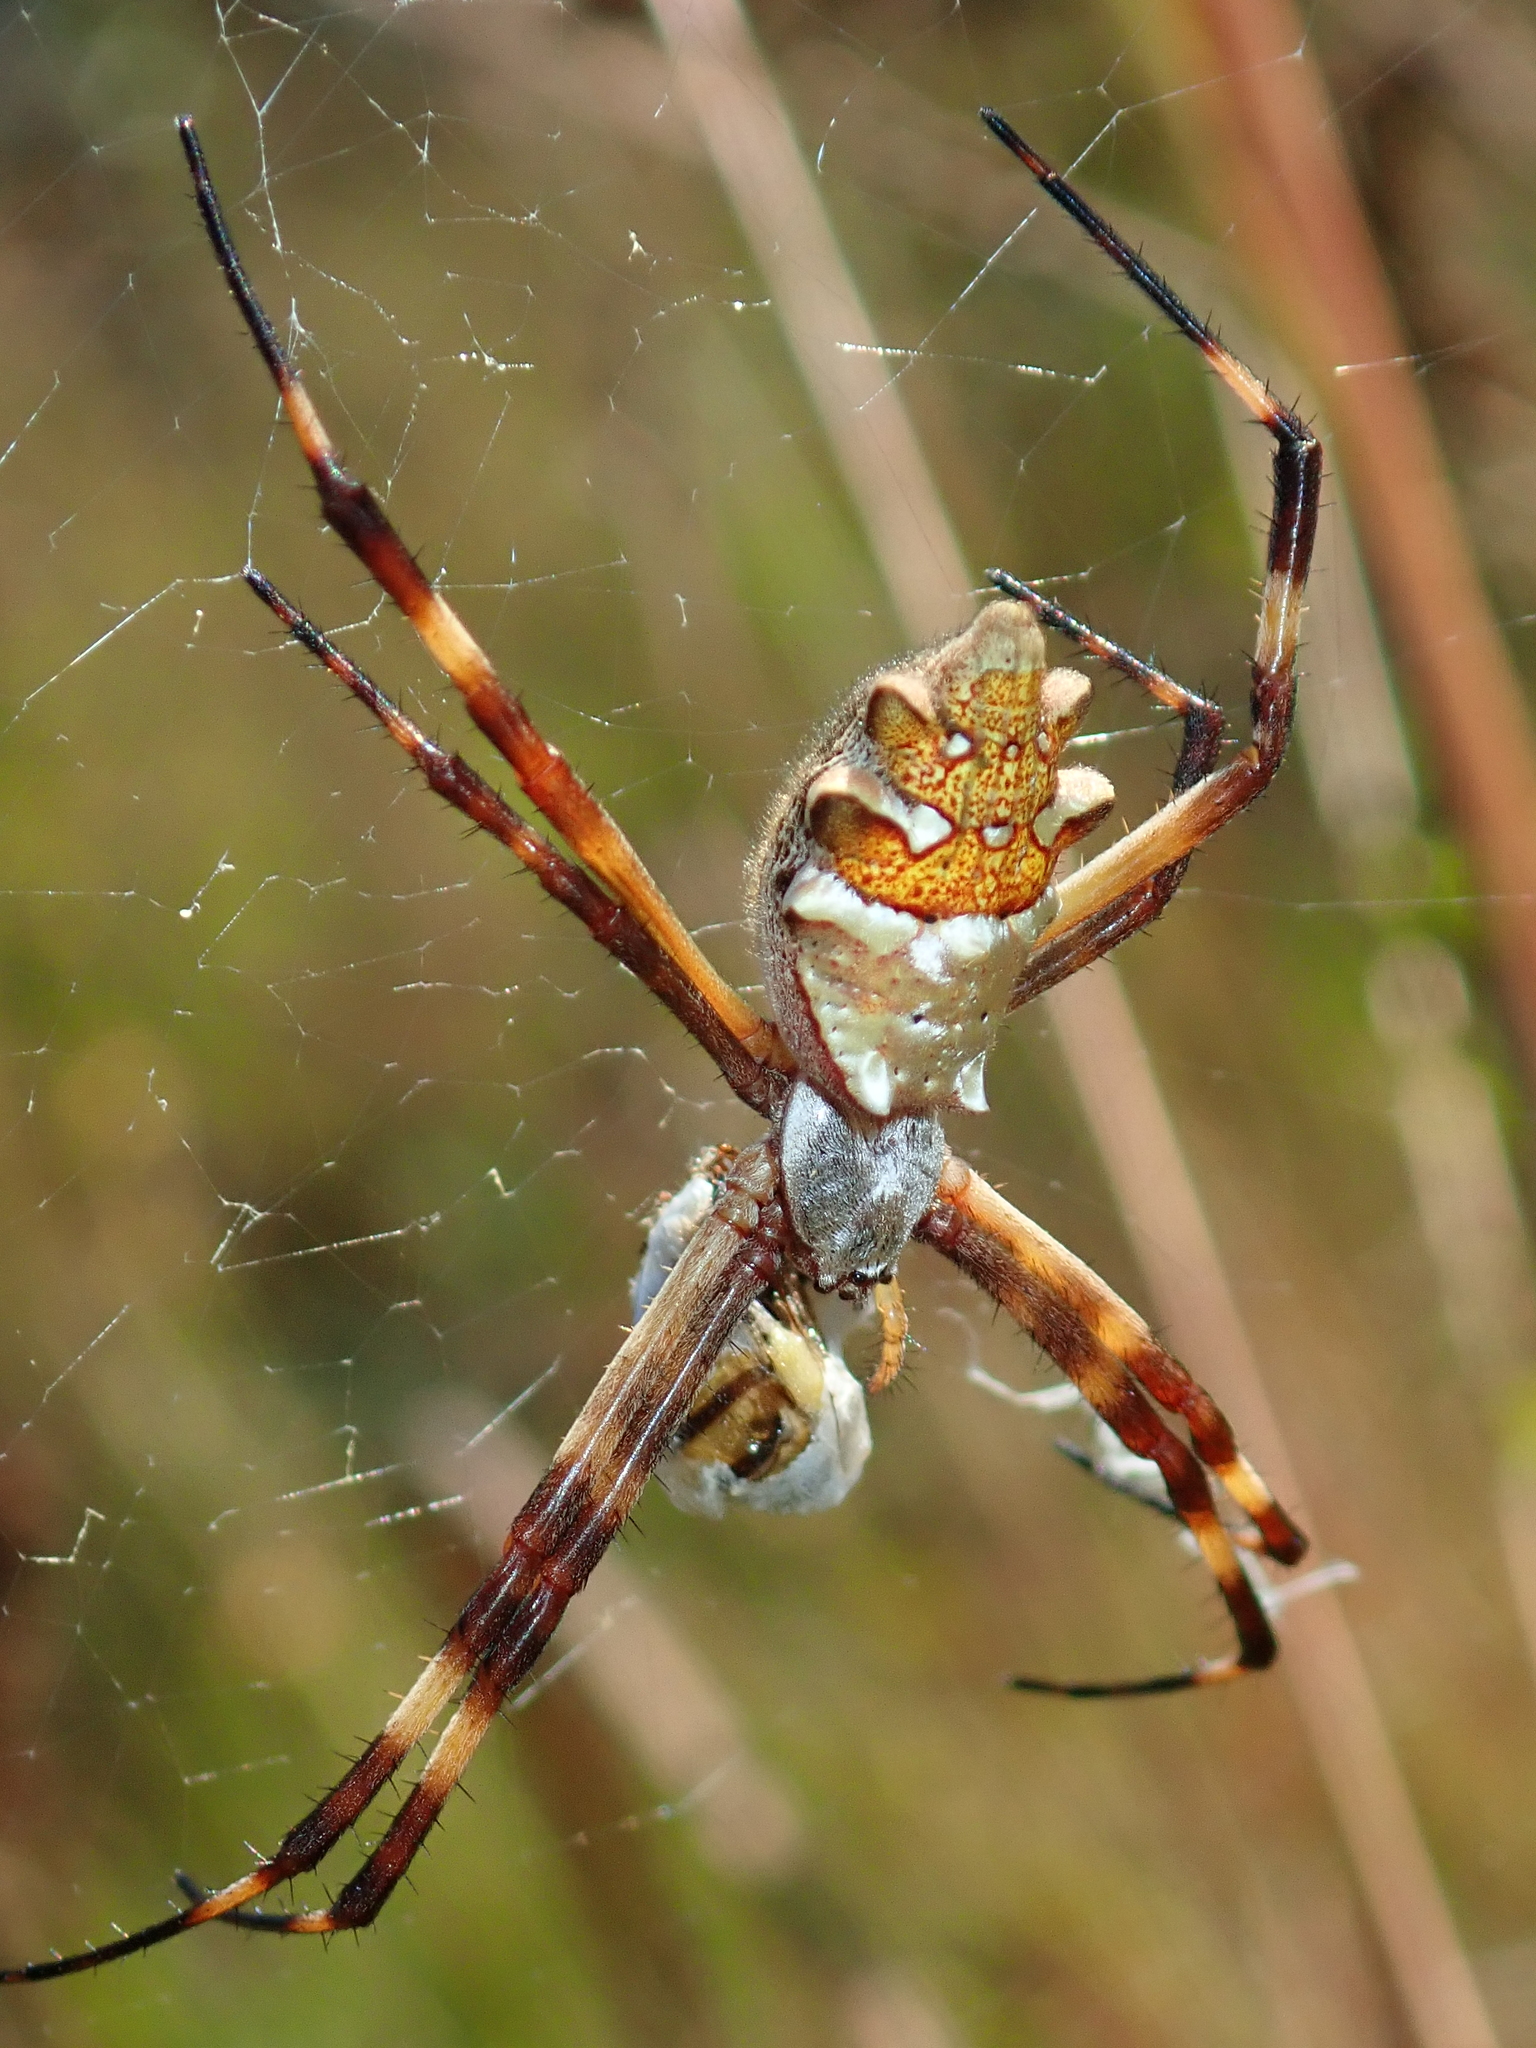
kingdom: Animalia
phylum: Arthropoda
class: Arachnida
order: Araneae
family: Araneidae
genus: Argiope
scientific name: Argiope argentata
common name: Orb weavers
